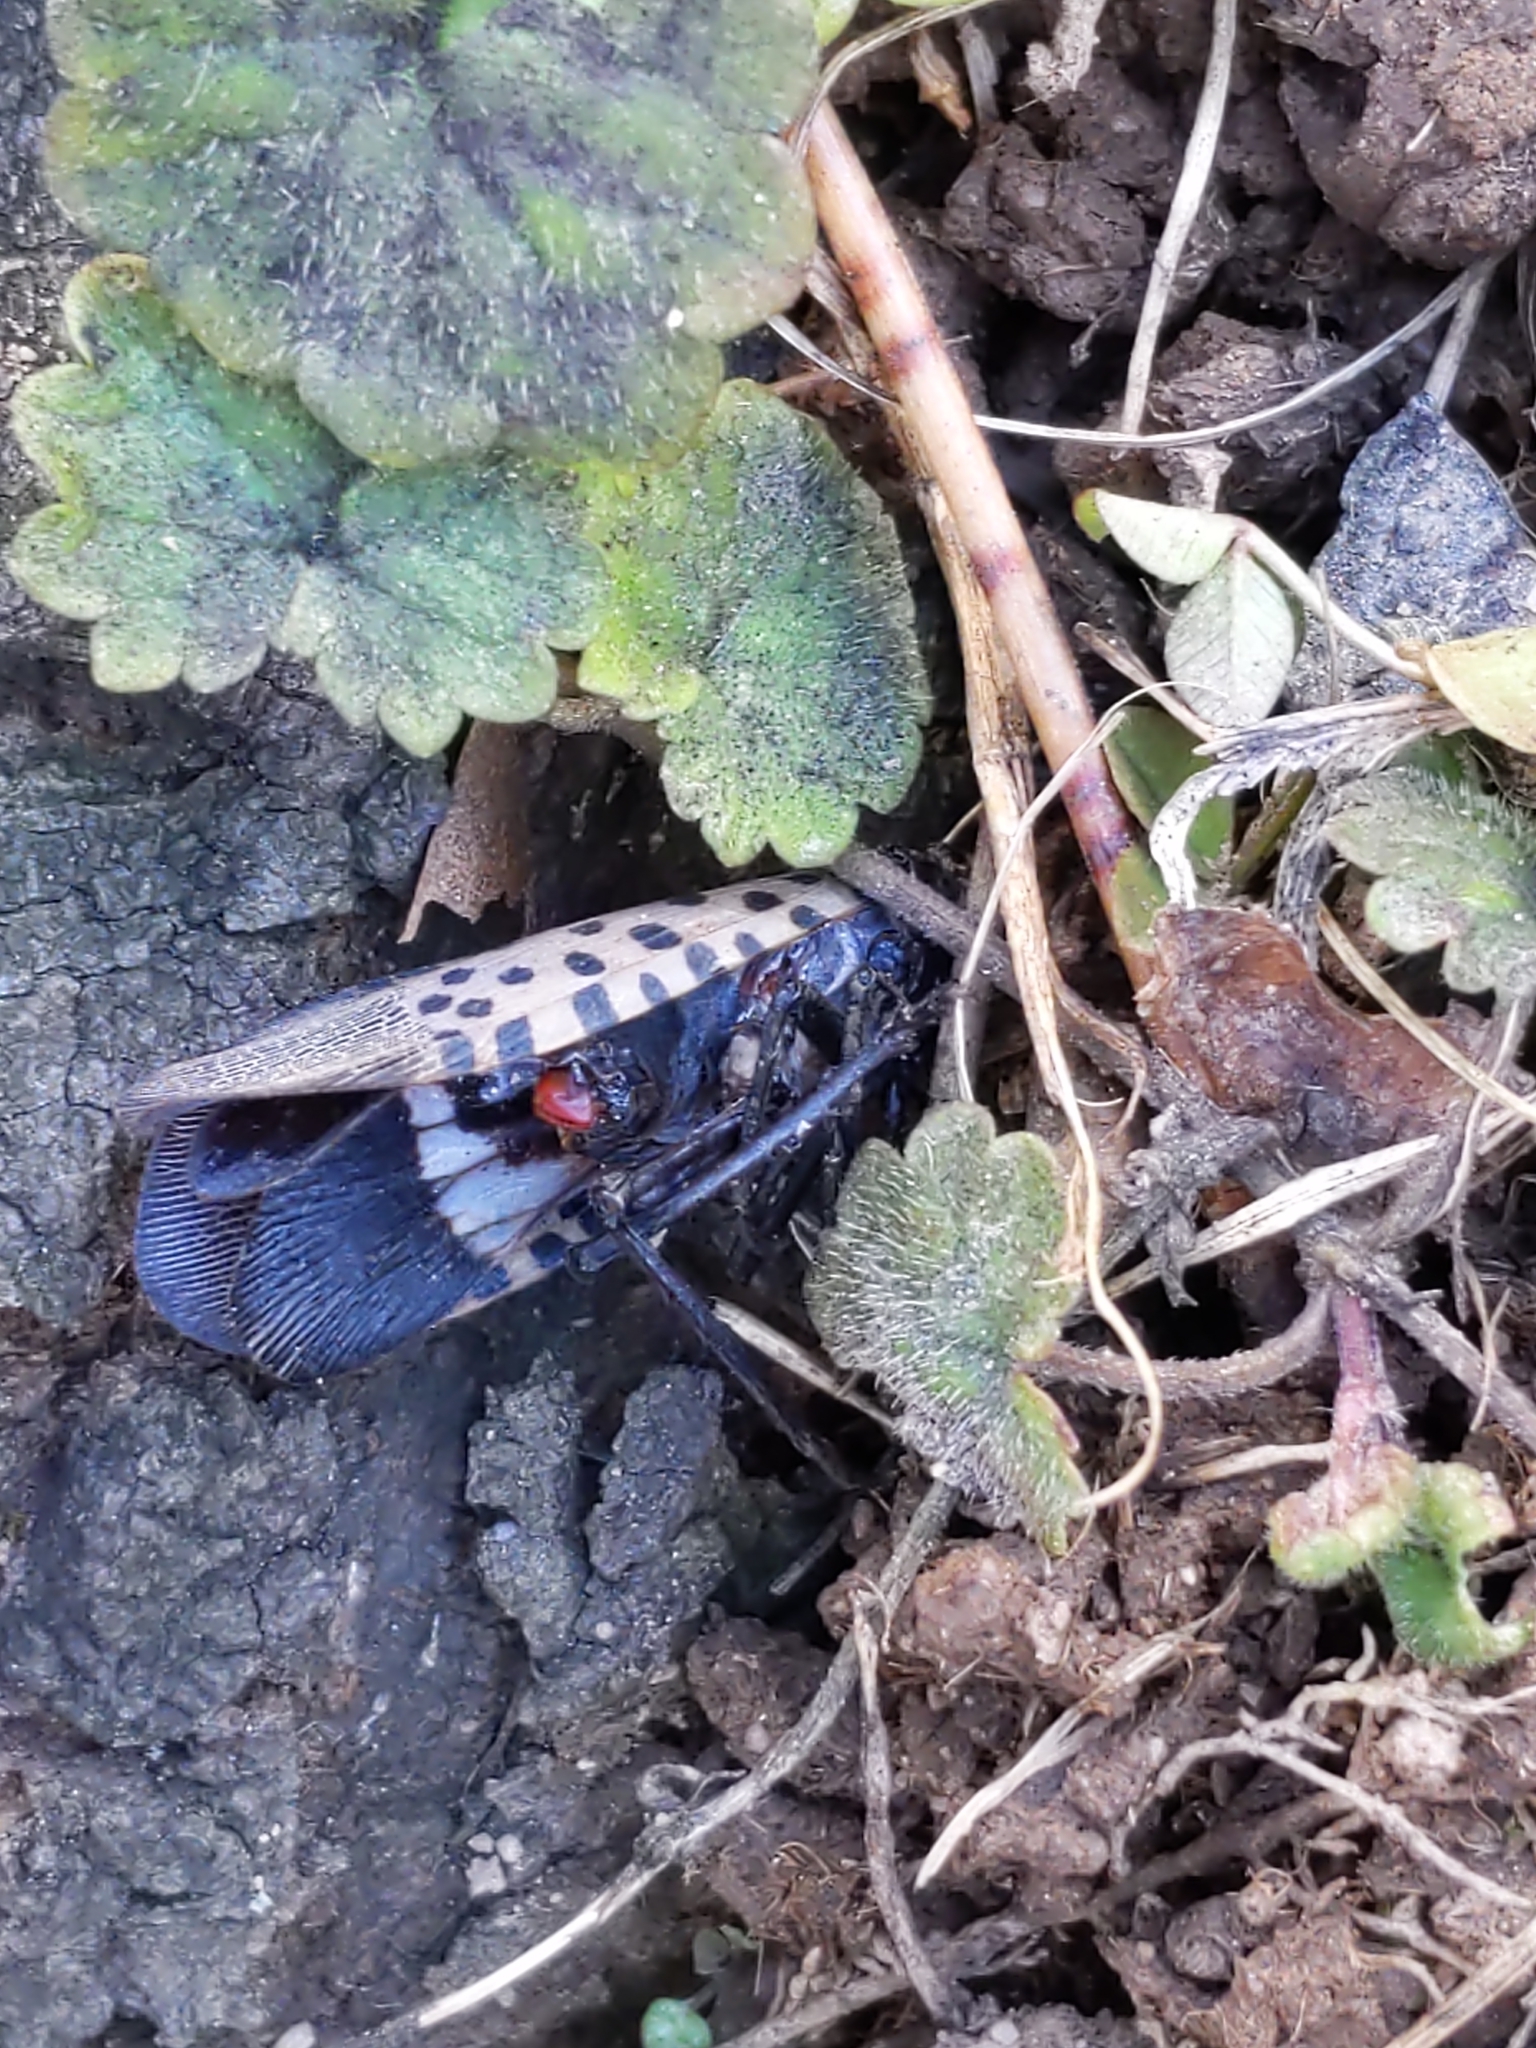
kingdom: Animalia
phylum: Arthropoda
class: Insecta
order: Hemiptera
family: Fulgoridae
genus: Lycorma
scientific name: Lycorma delicatula
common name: Spotted lanternfly
